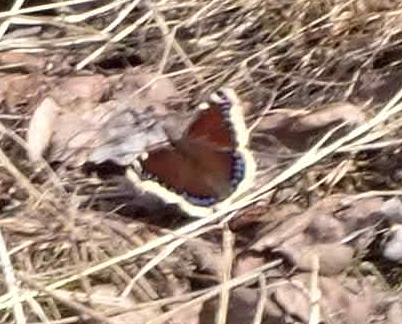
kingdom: Animalia
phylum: Arthropoda
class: Insecta
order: Lepidoptera
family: Nymphalidae
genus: Nymphalis
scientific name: Nymphalis antiopa
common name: Camberwell beauty
